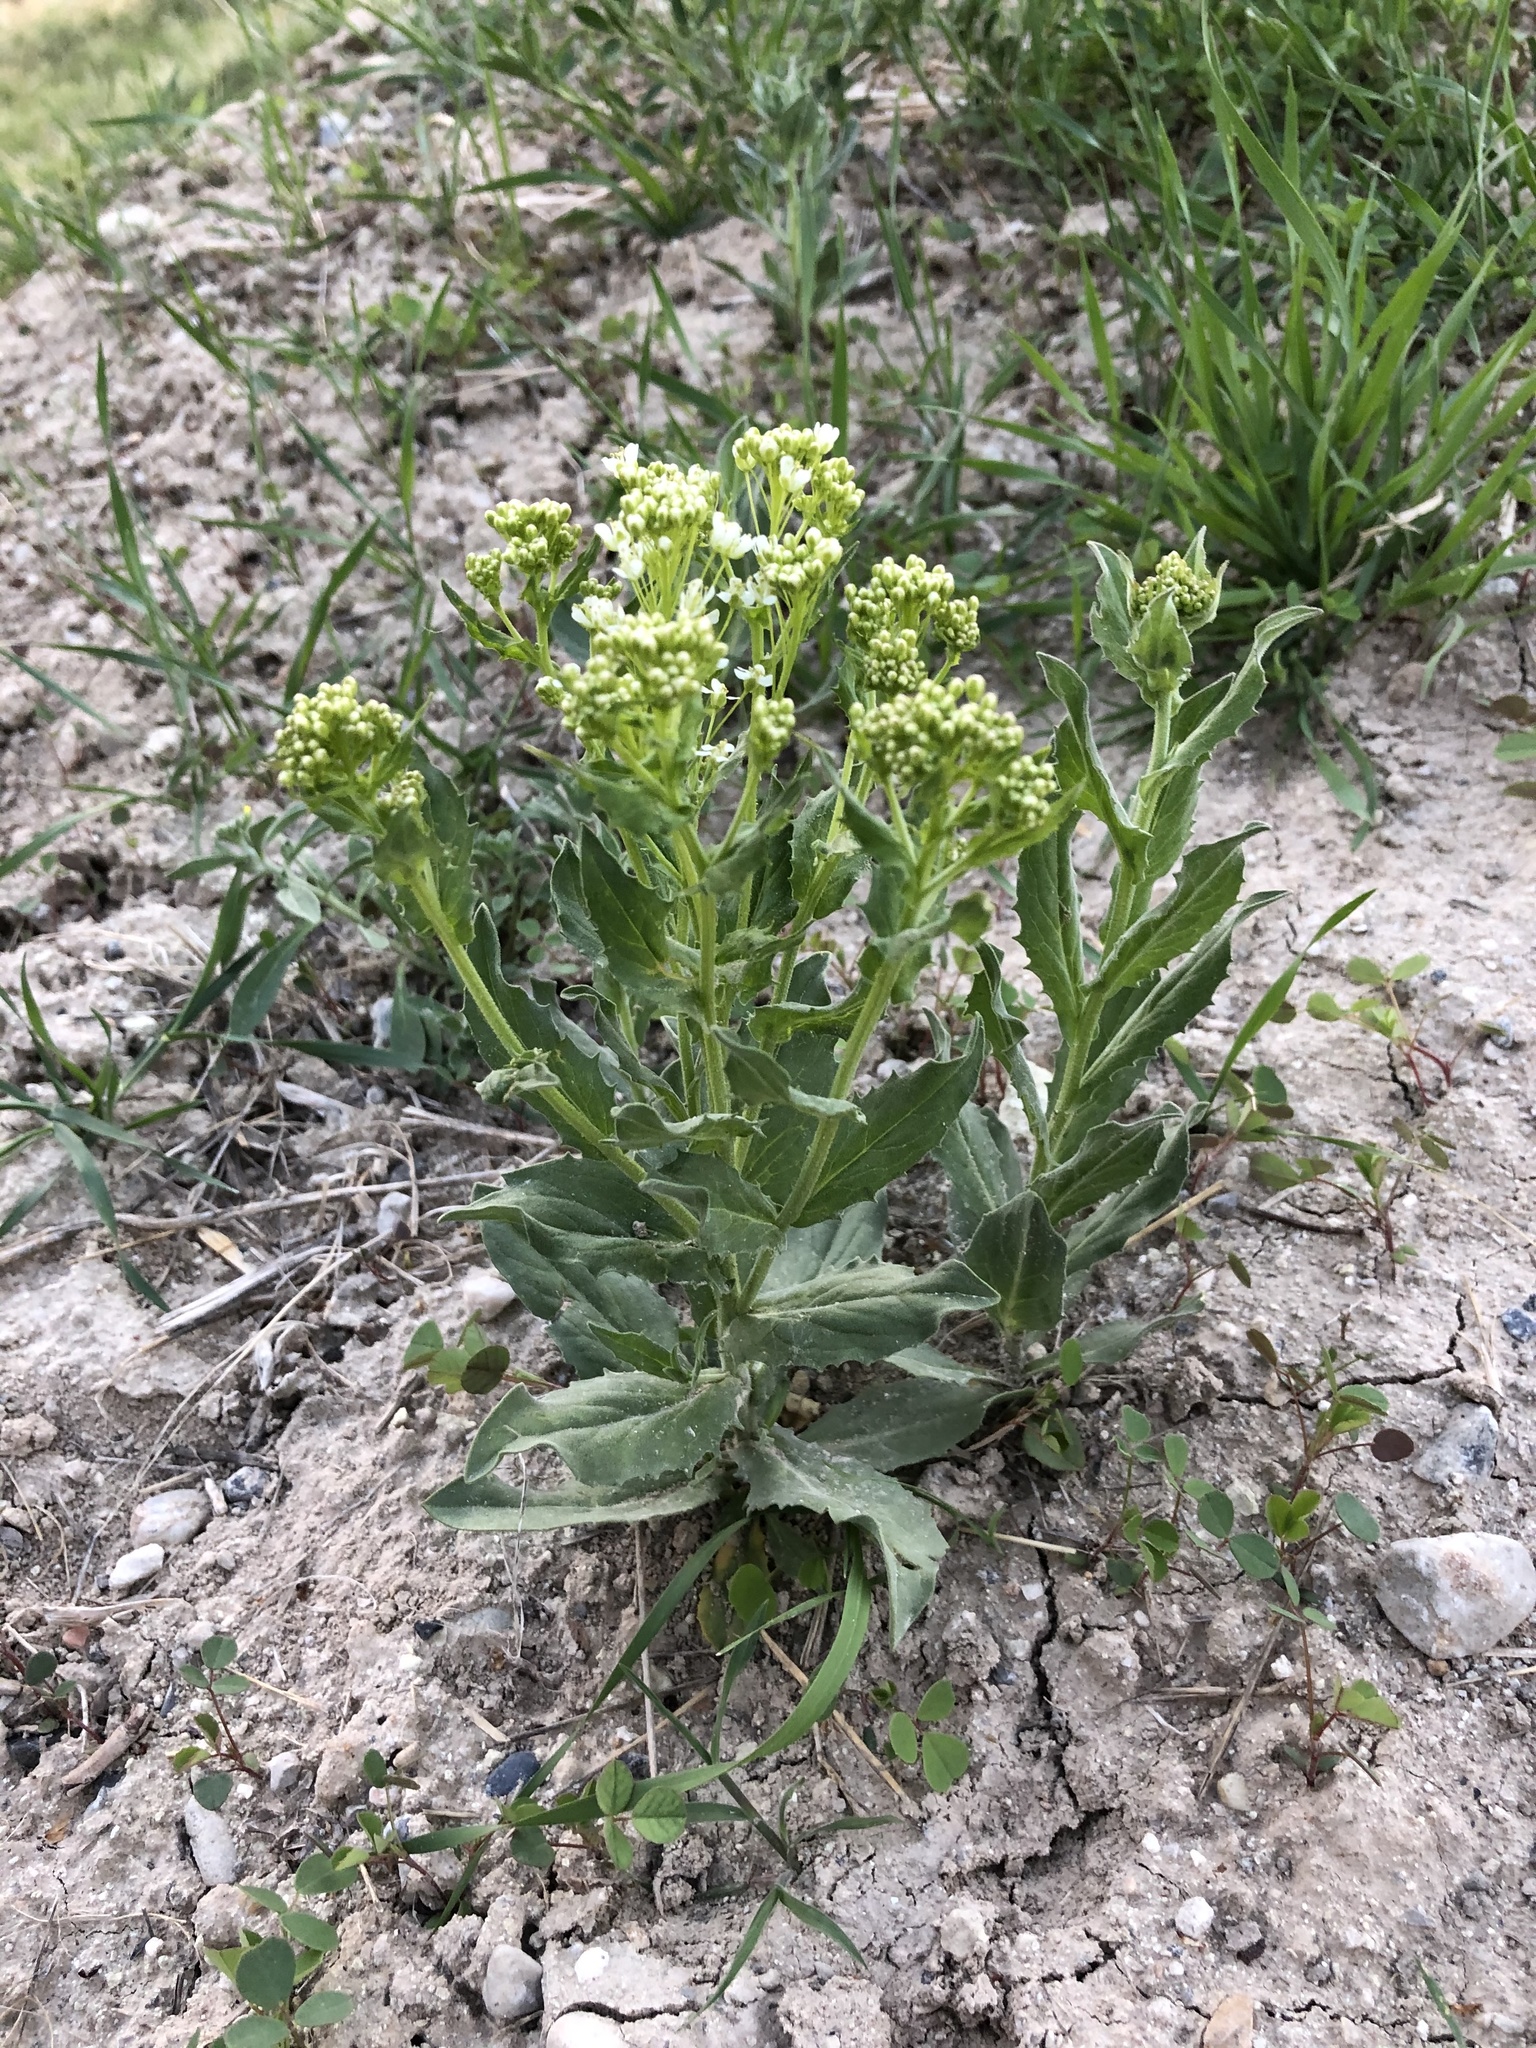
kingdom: Plantae
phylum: Tracheophyta
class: Magnoliopsida
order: Brassicales
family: Brassicaceae
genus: Lepidium
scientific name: Lepidium draba
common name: Hoary cress
